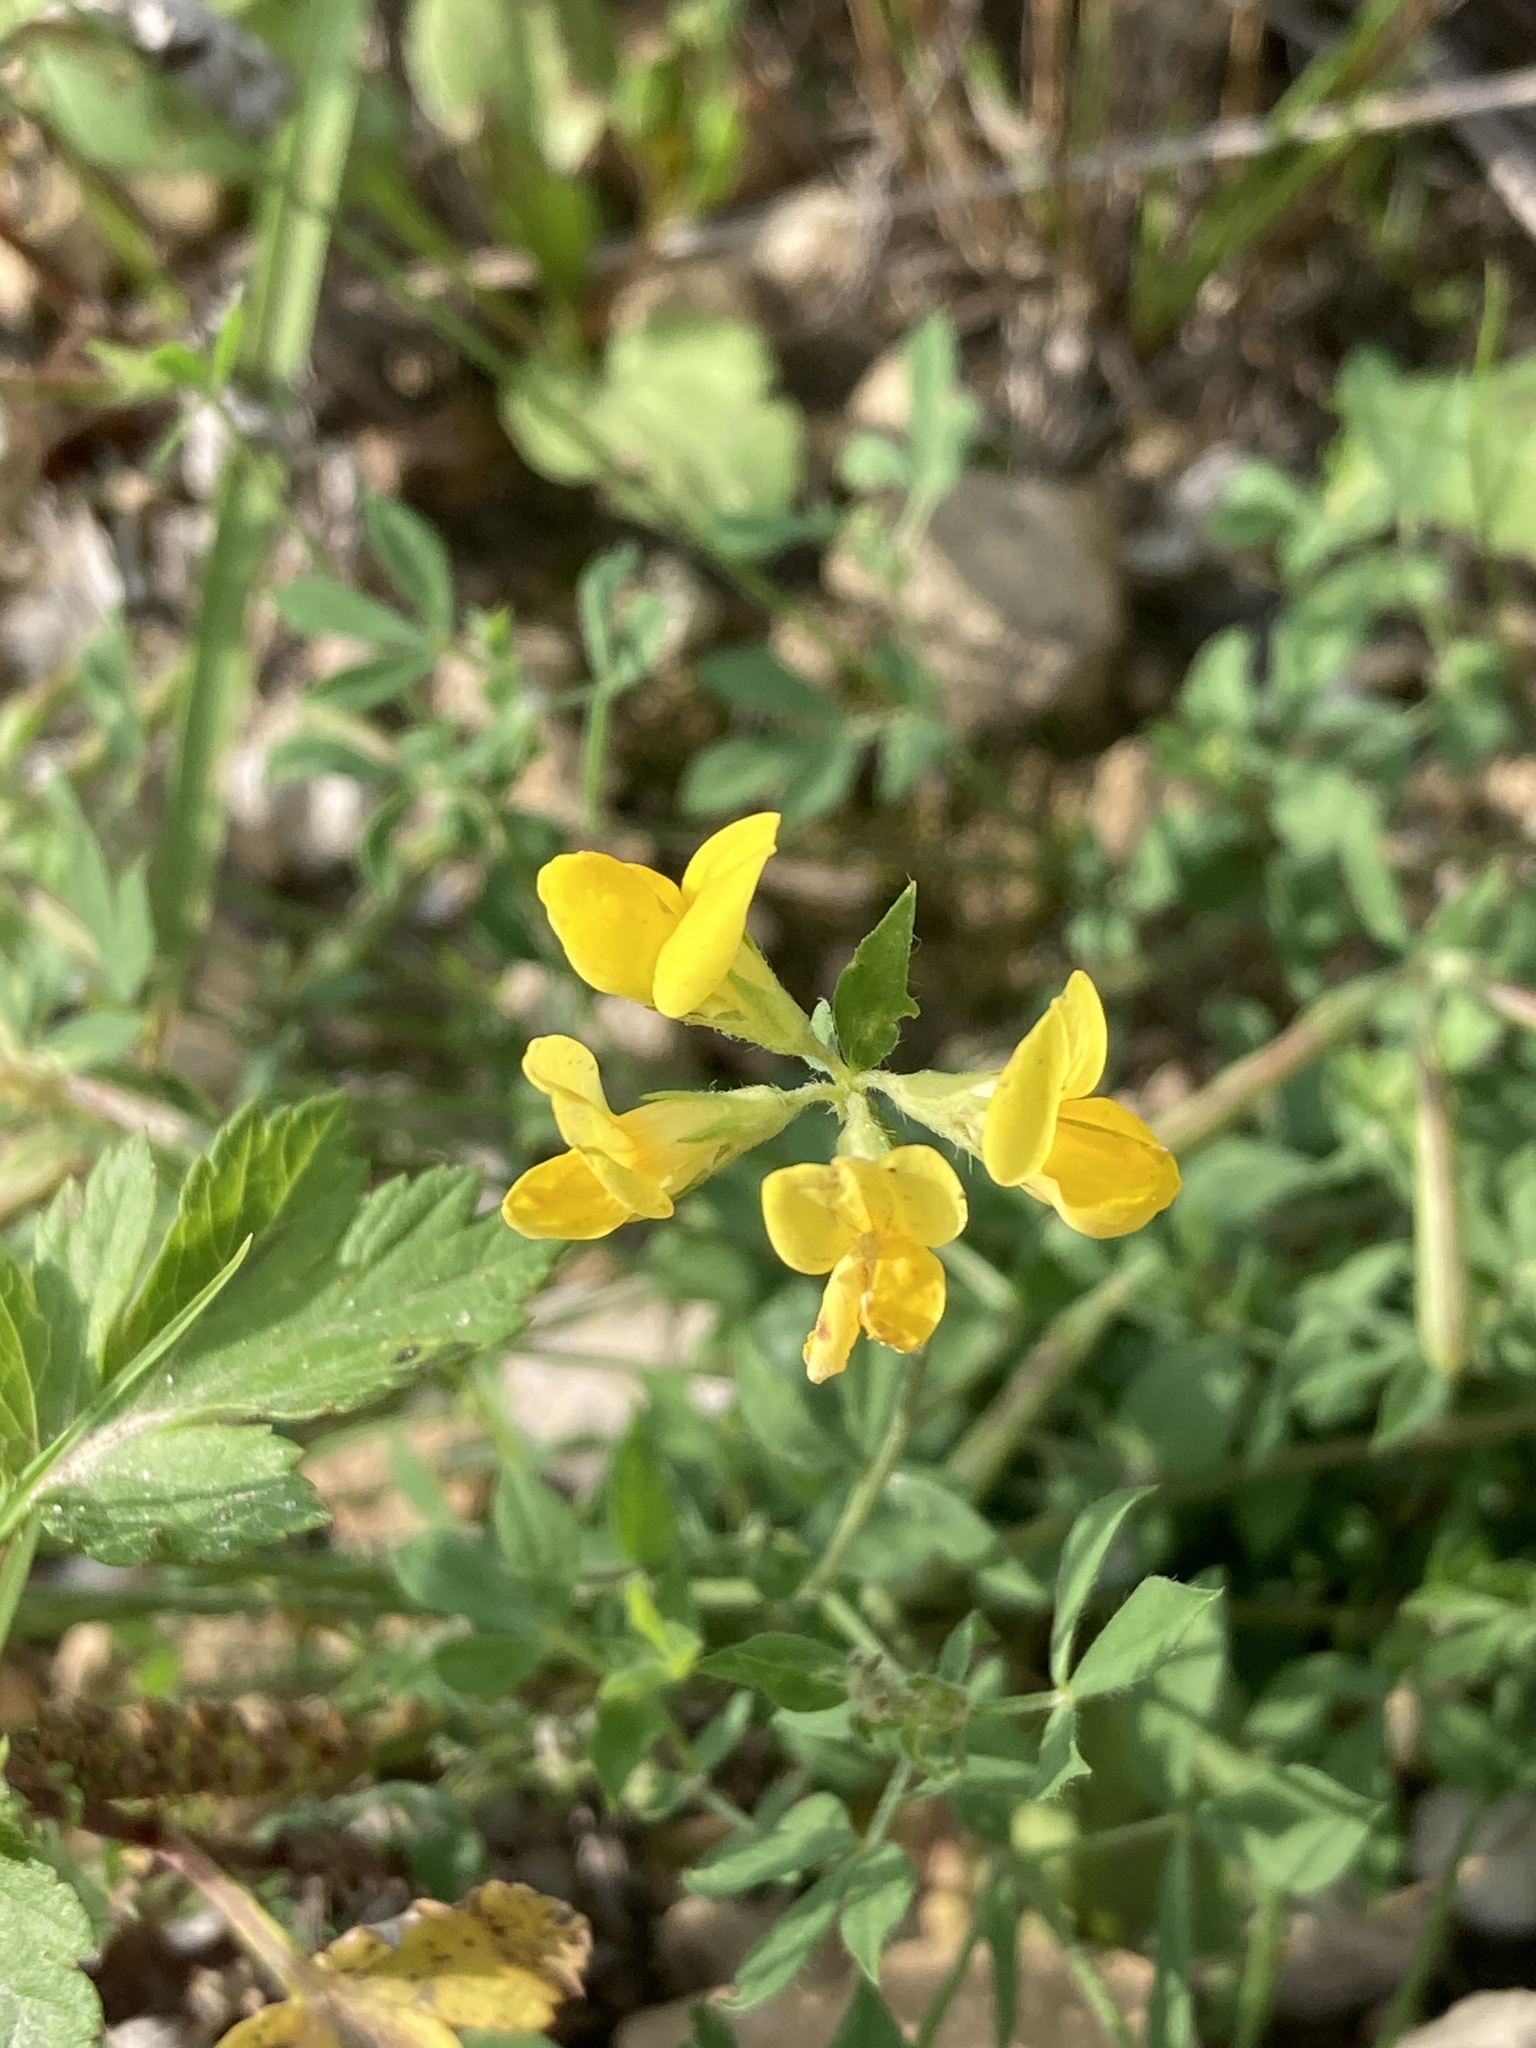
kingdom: Plantae
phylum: Tracheophyta
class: Magnoliopsida
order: Fabales
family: Fabaceae
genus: Lotus
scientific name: Lotus corniculatus
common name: Common bird's-foot-trefoil
